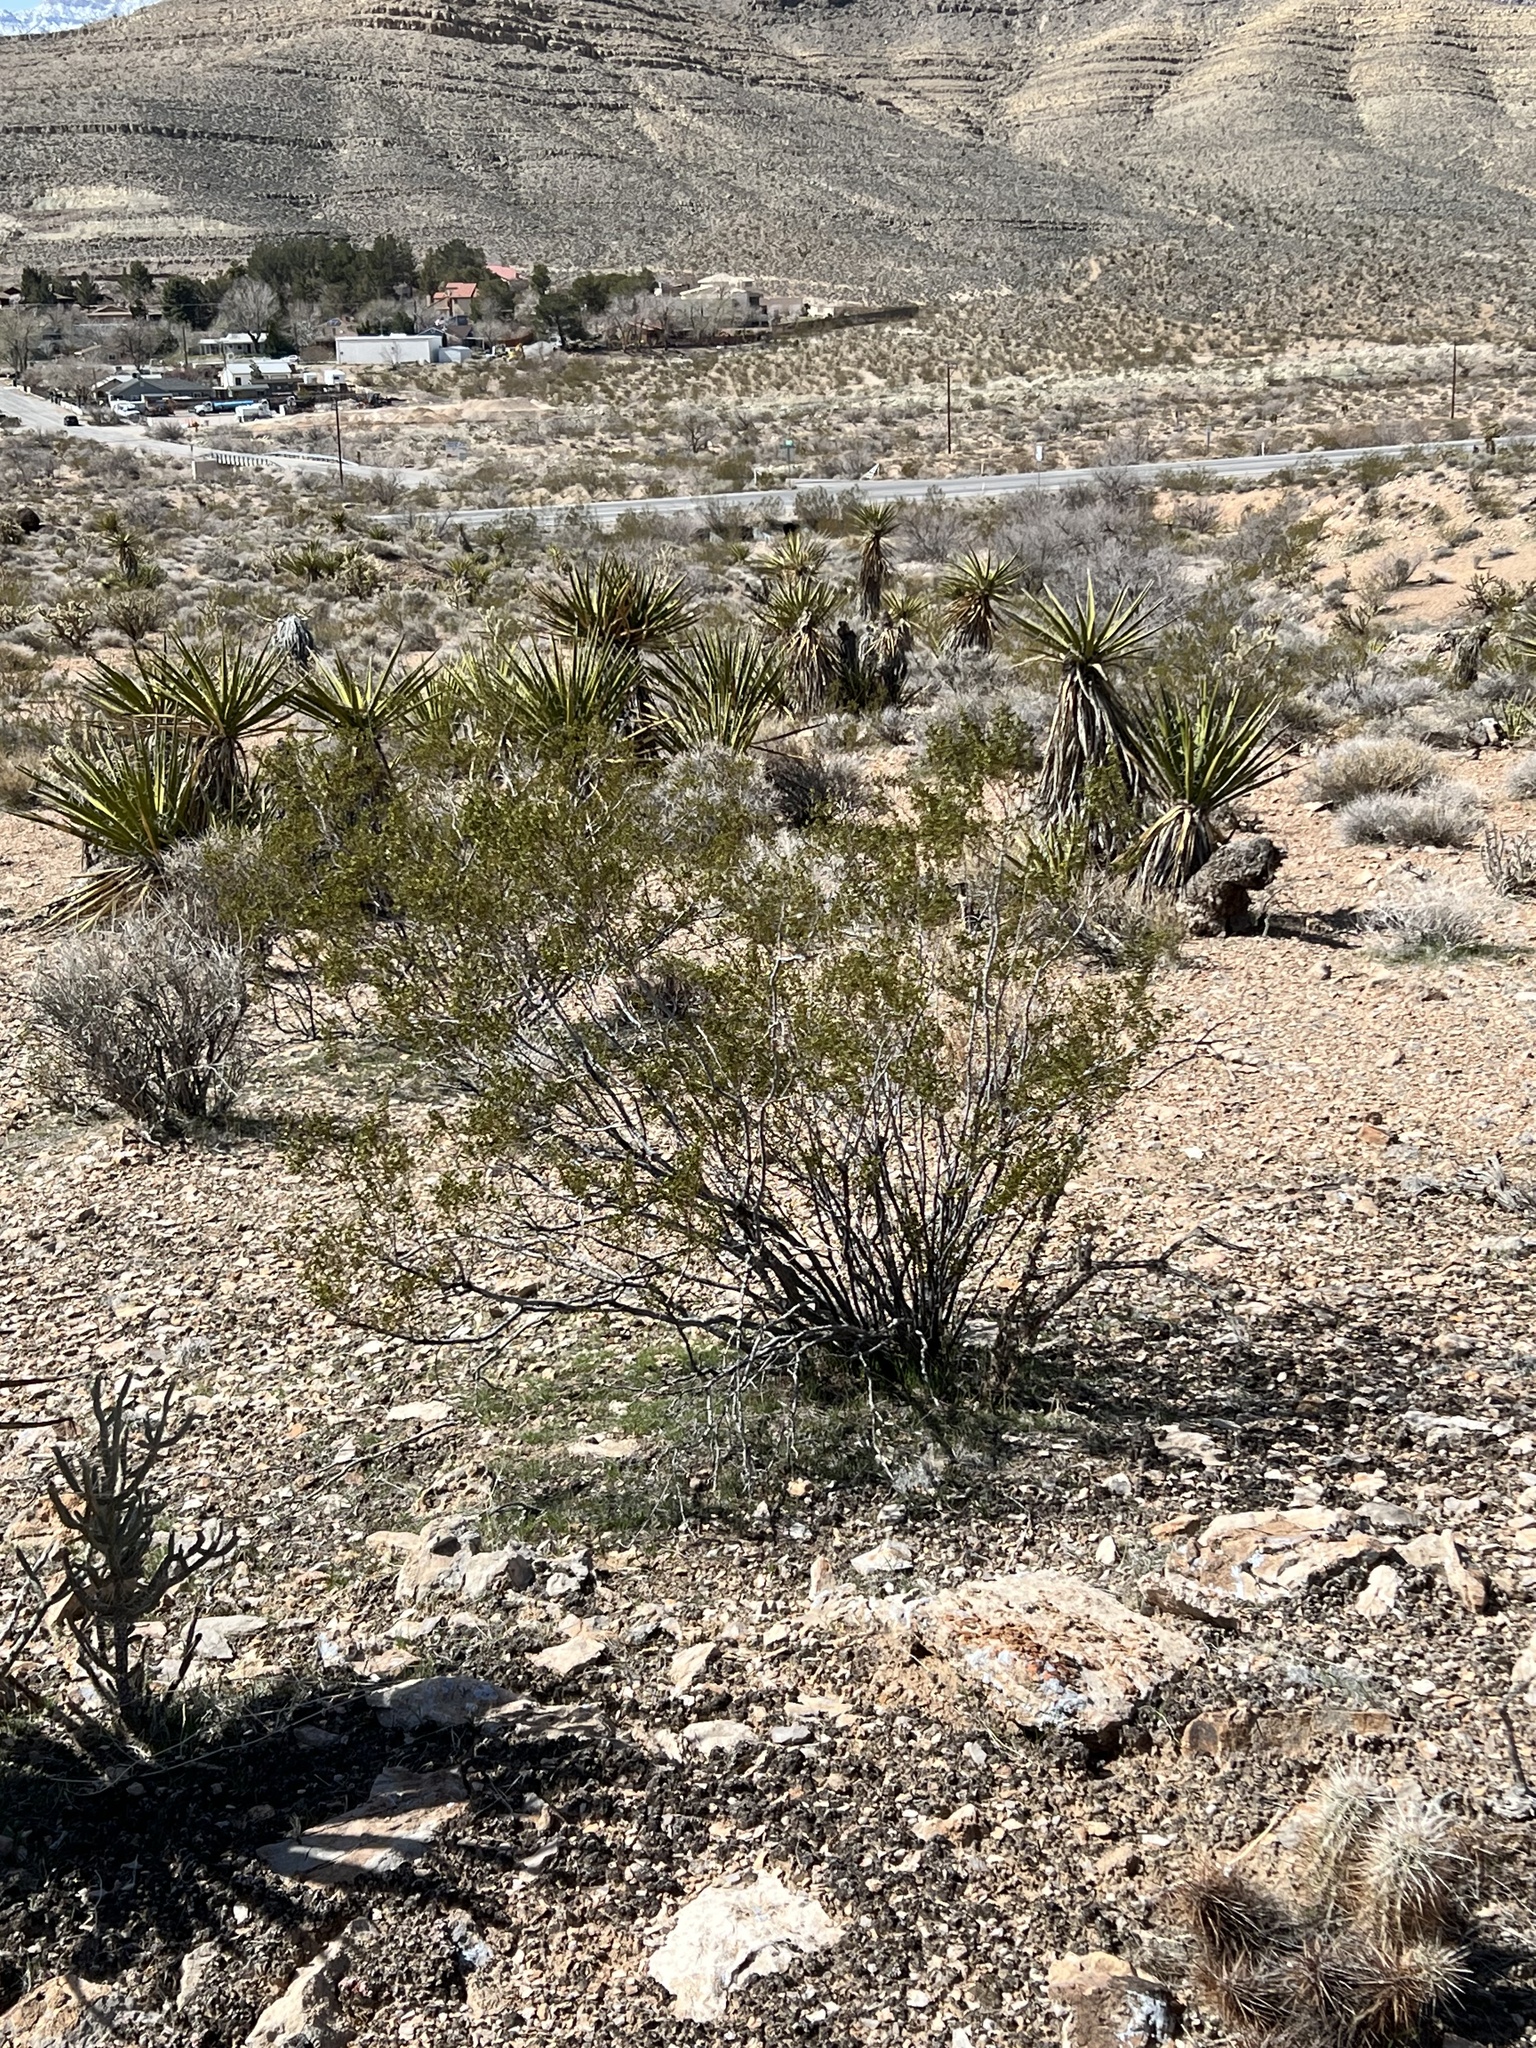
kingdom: Plantae
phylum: Tracheophyta
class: Magnoliopsida
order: Zygophyllales
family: Zygophyllaceae
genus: Larrea
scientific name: Larrea tridentata
